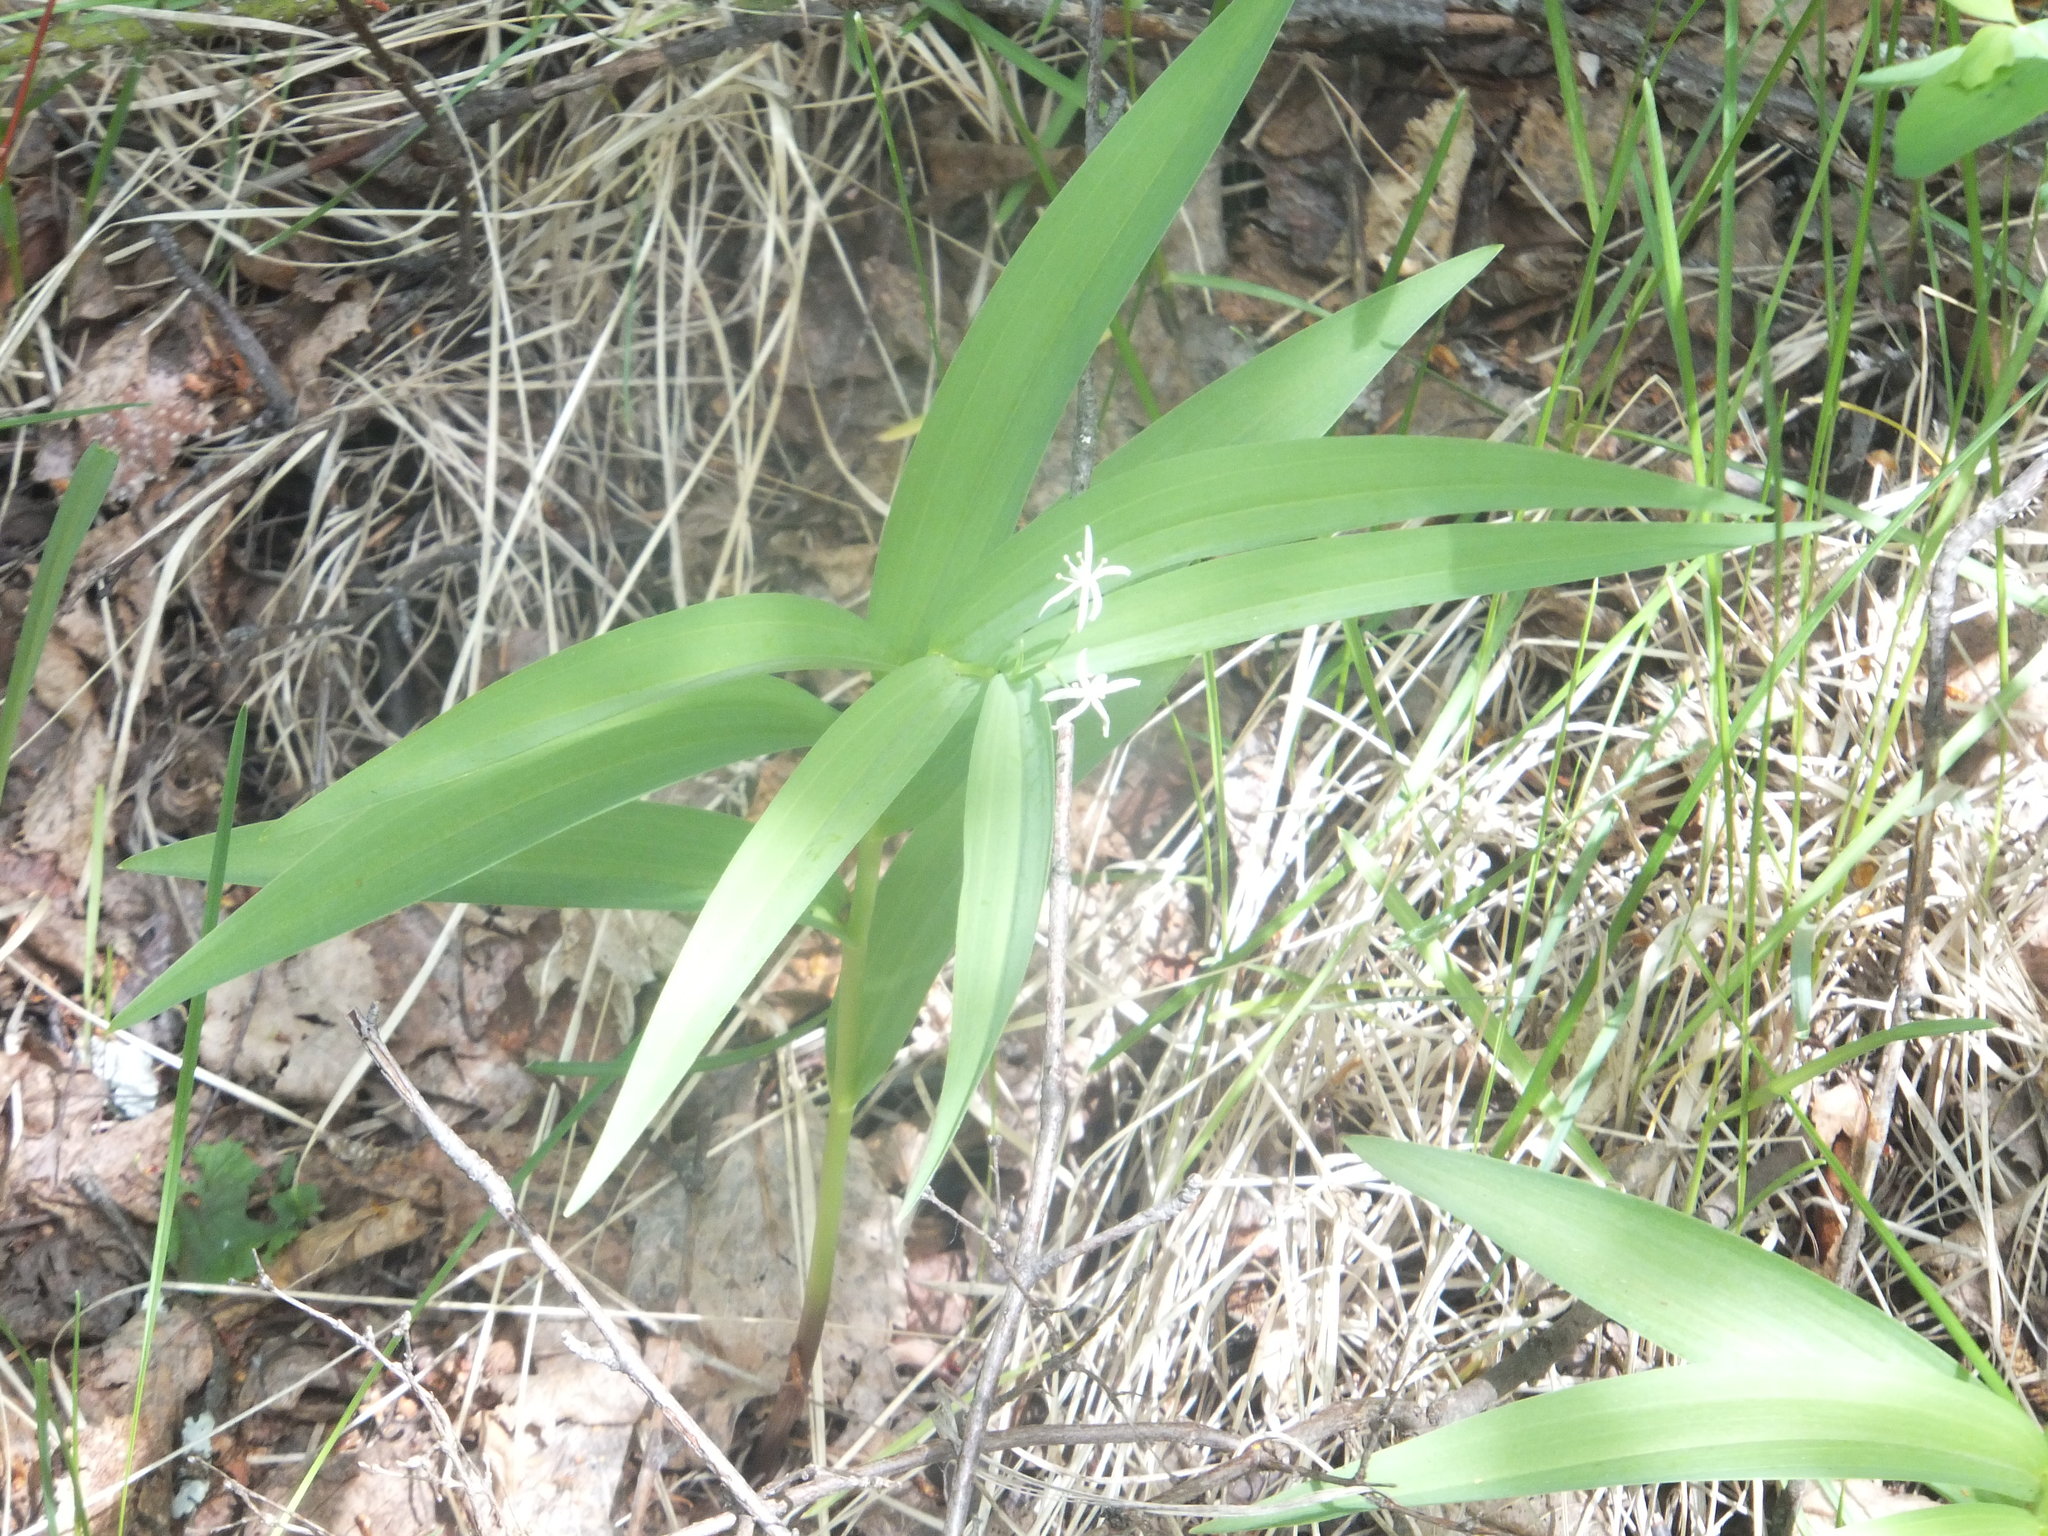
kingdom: Plantae
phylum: Tracheophyta
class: Liliopsida
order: Asparagales
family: Asparagaceae
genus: Maianthemum
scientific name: Maianthemum stellatum
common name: Little false solomon's seal
